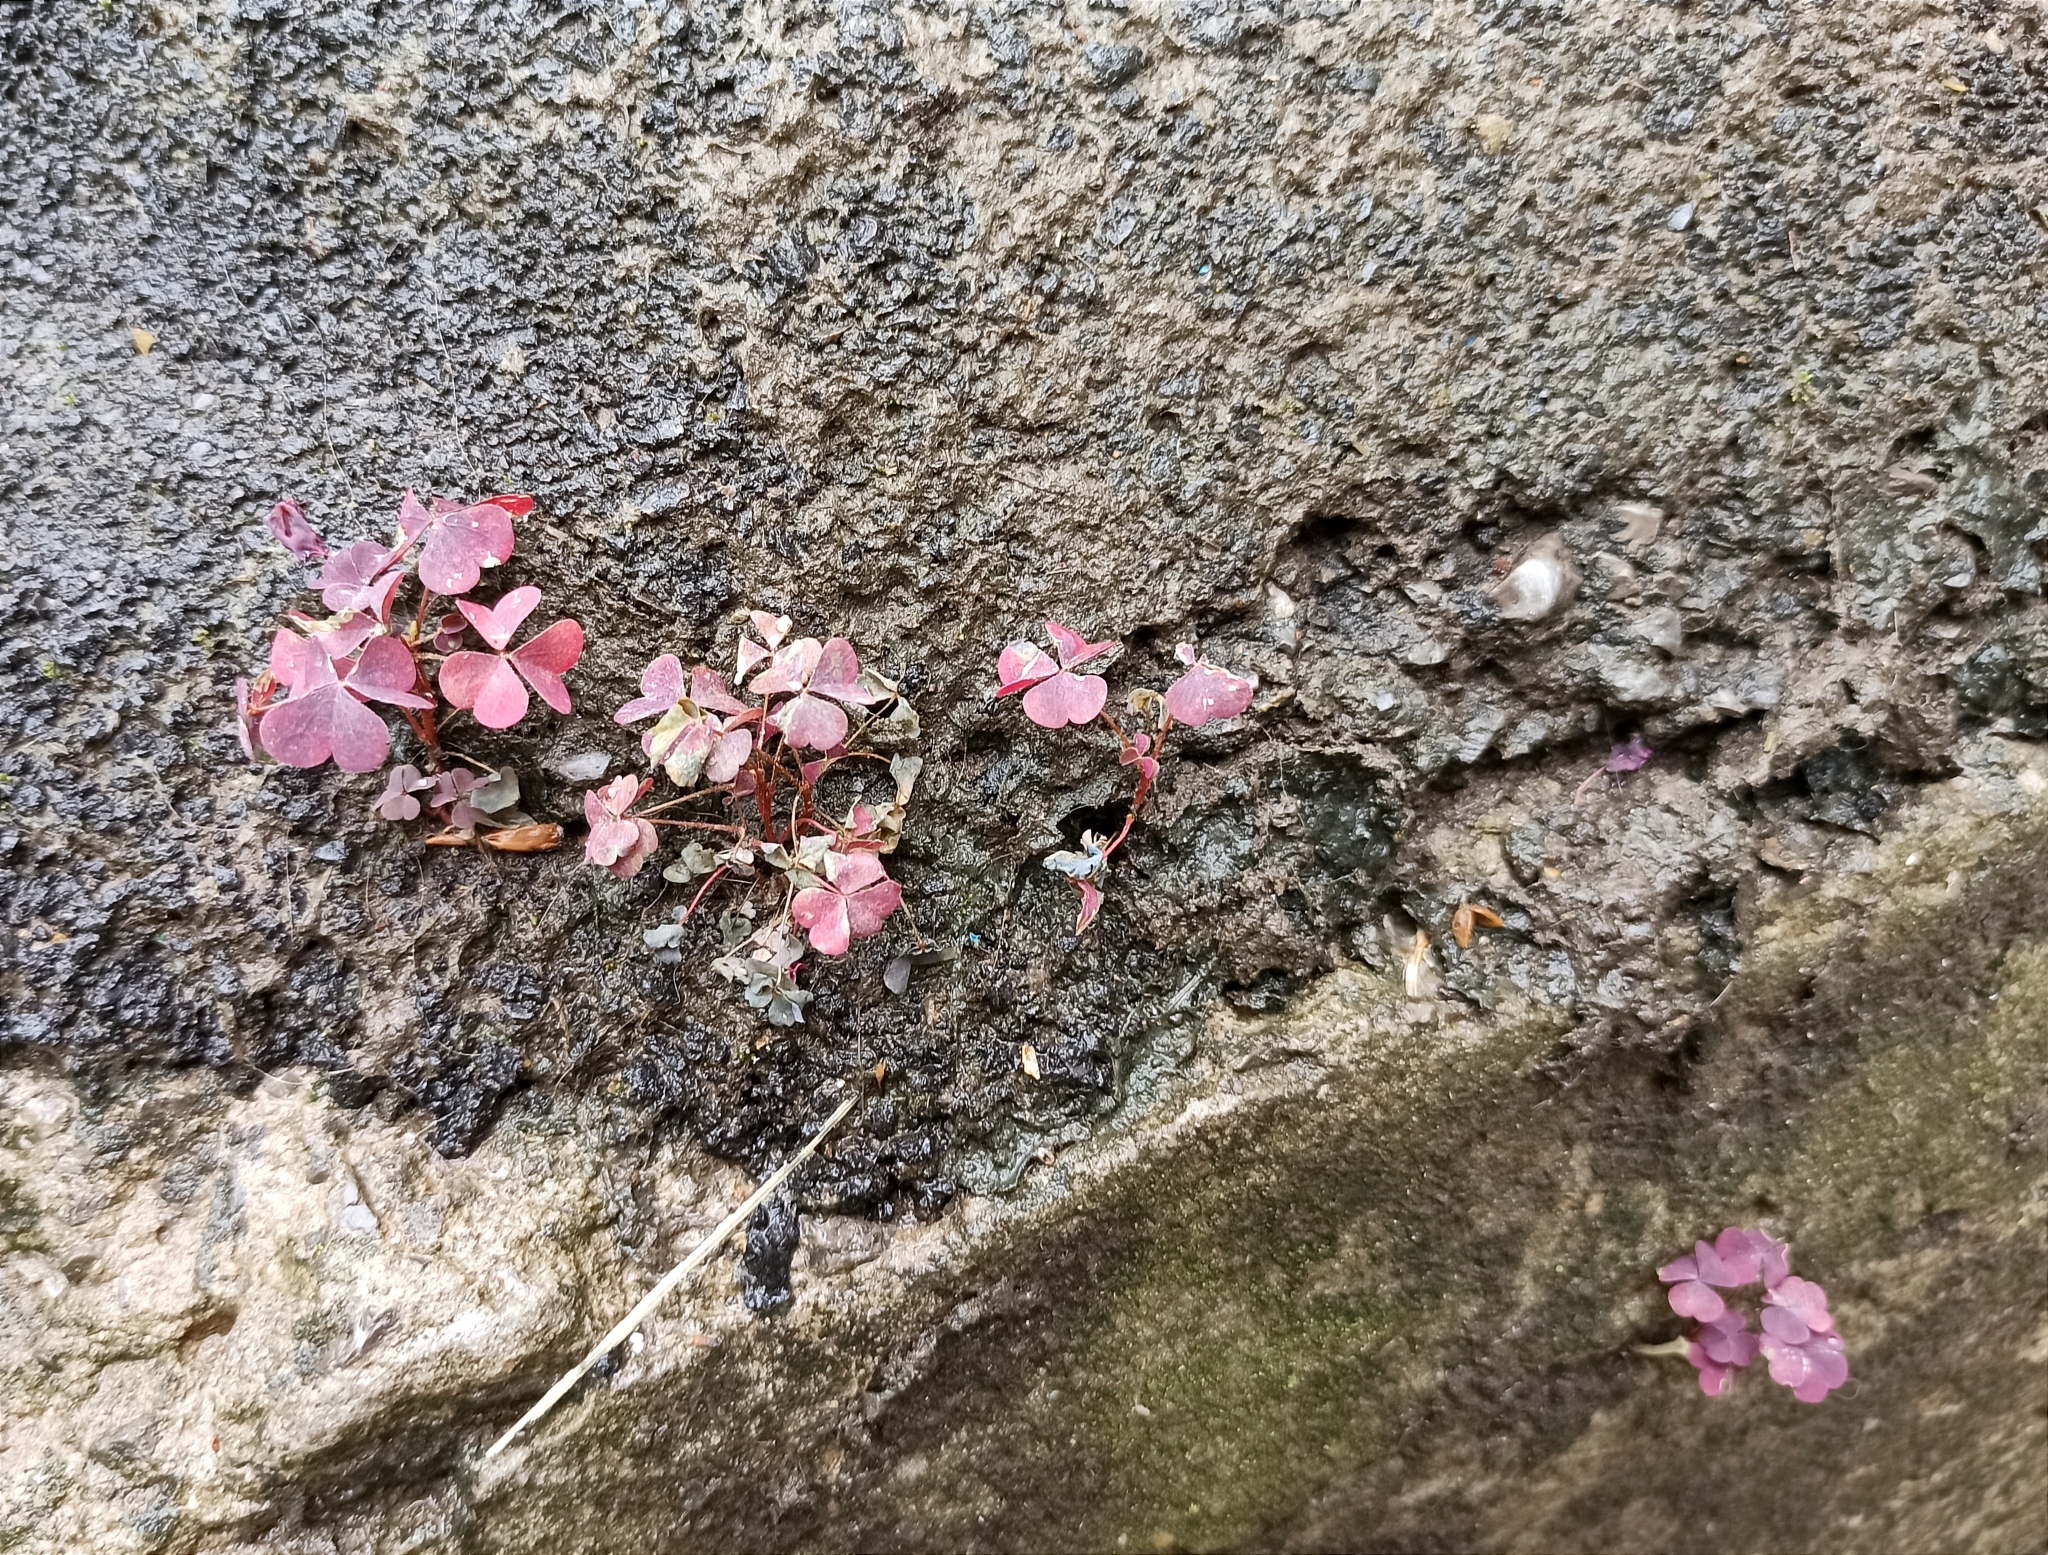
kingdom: Plantae
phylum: Tracheophyta
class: Magnoliopsida
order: Oxalidales
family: Oxalidaceae
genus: Oxalis
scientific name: Oxalis corniculata
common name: Procumbent yellow-sorrel
